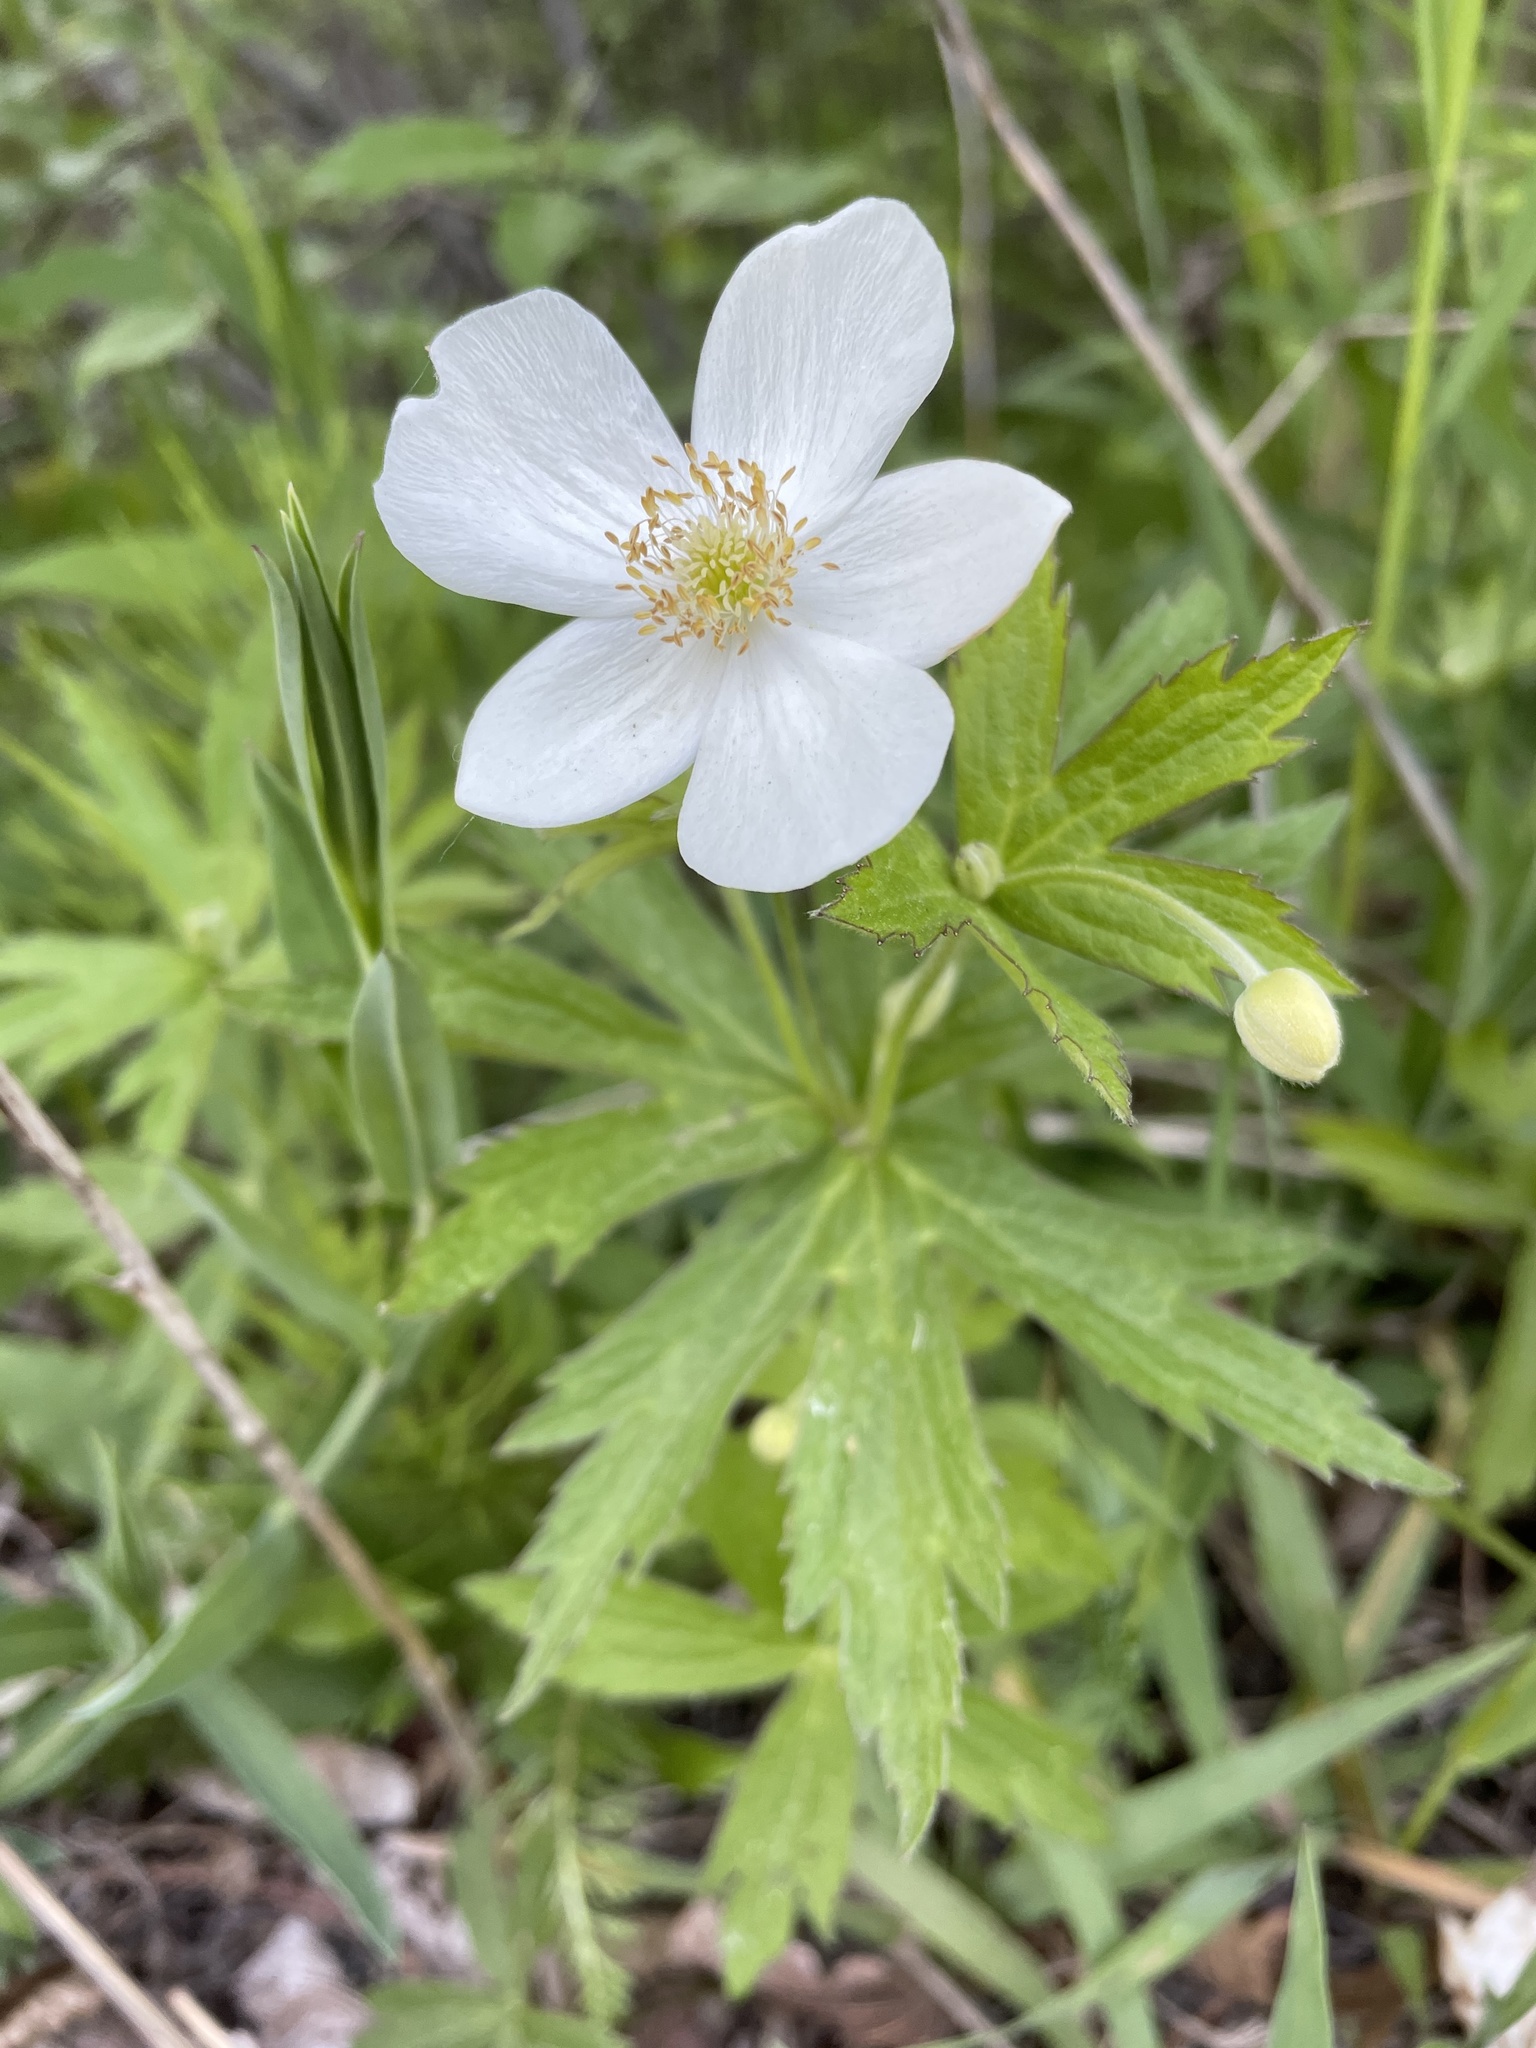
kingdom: Plantae
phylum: Tracheophyta
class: Magnoliopsida
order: Ranunculales
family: Ranunculaceae
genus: Anemonastrum
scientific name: Anemonastrum canadense
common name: Canada anemone
